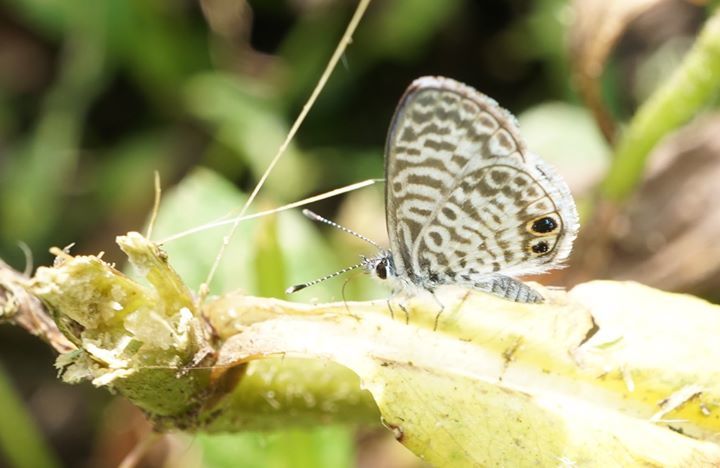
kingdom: Animalia
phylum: Arthropoda
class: Insecta
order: Lepidoptera
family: Lycaenidae
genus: Leptotes
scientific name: Leptotes cassius
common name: Cassius blue
